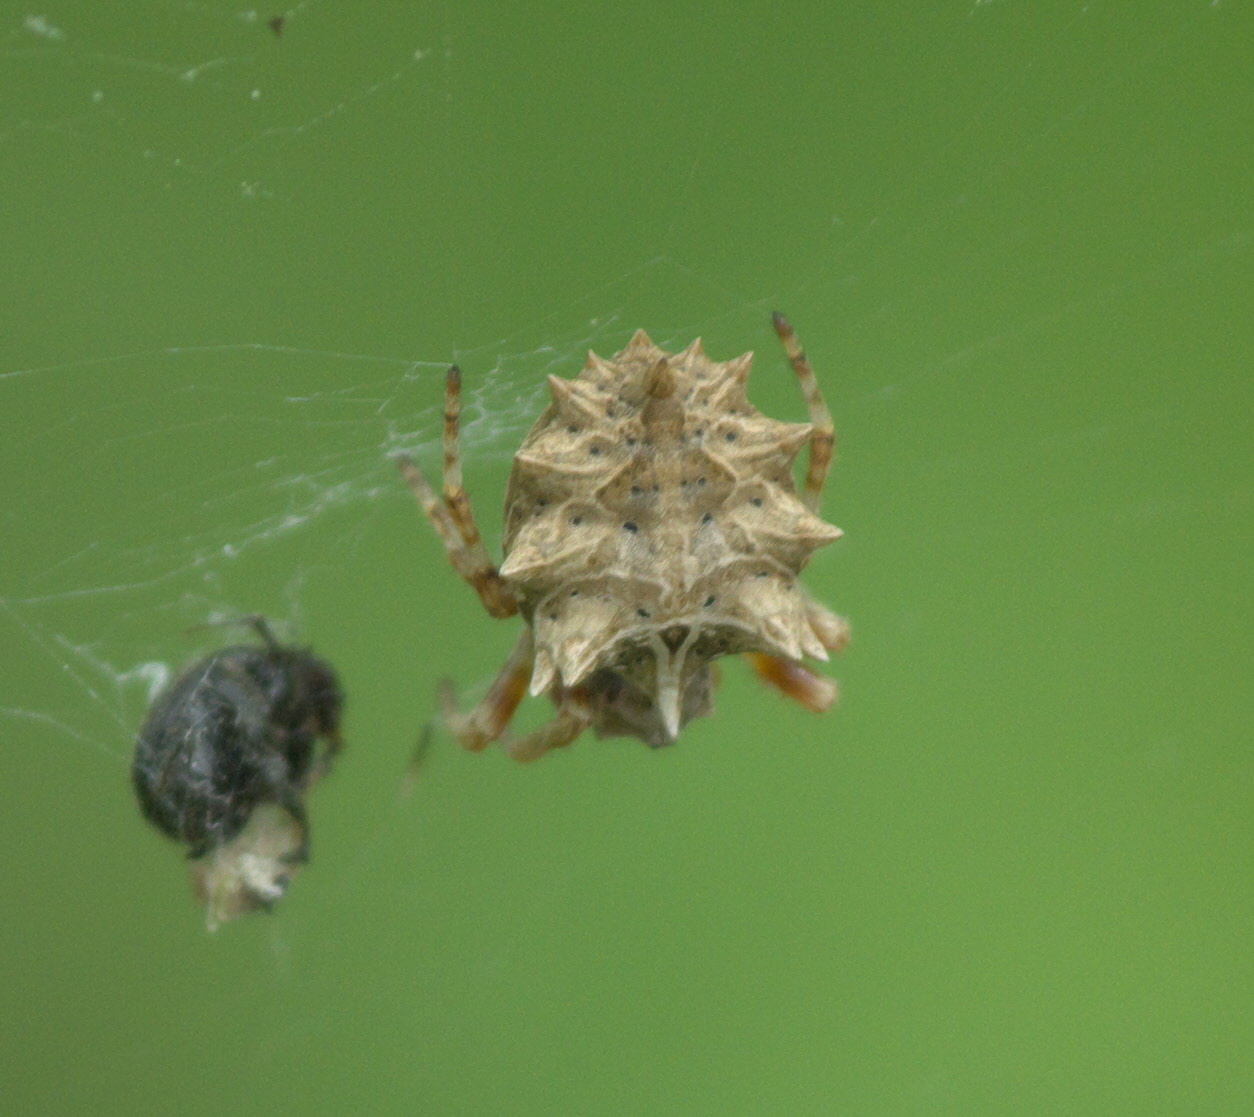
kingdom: Animalia
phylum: Arthropoda
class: Arachnida
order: Araneae
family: Araneidae
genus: Acanthepeira
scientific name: Acanthepeira stellata
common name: Starbellied orbweaver
